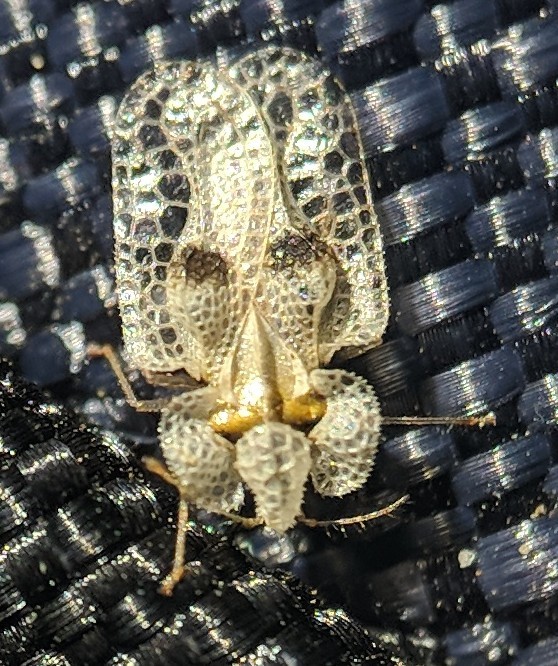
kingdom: Animalia
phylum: Arthropoda
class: Insecta
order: Hemiptera
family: Tingidae
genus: Corythucha
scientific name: Corythucha ciliata
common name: Sycamore lace bug
